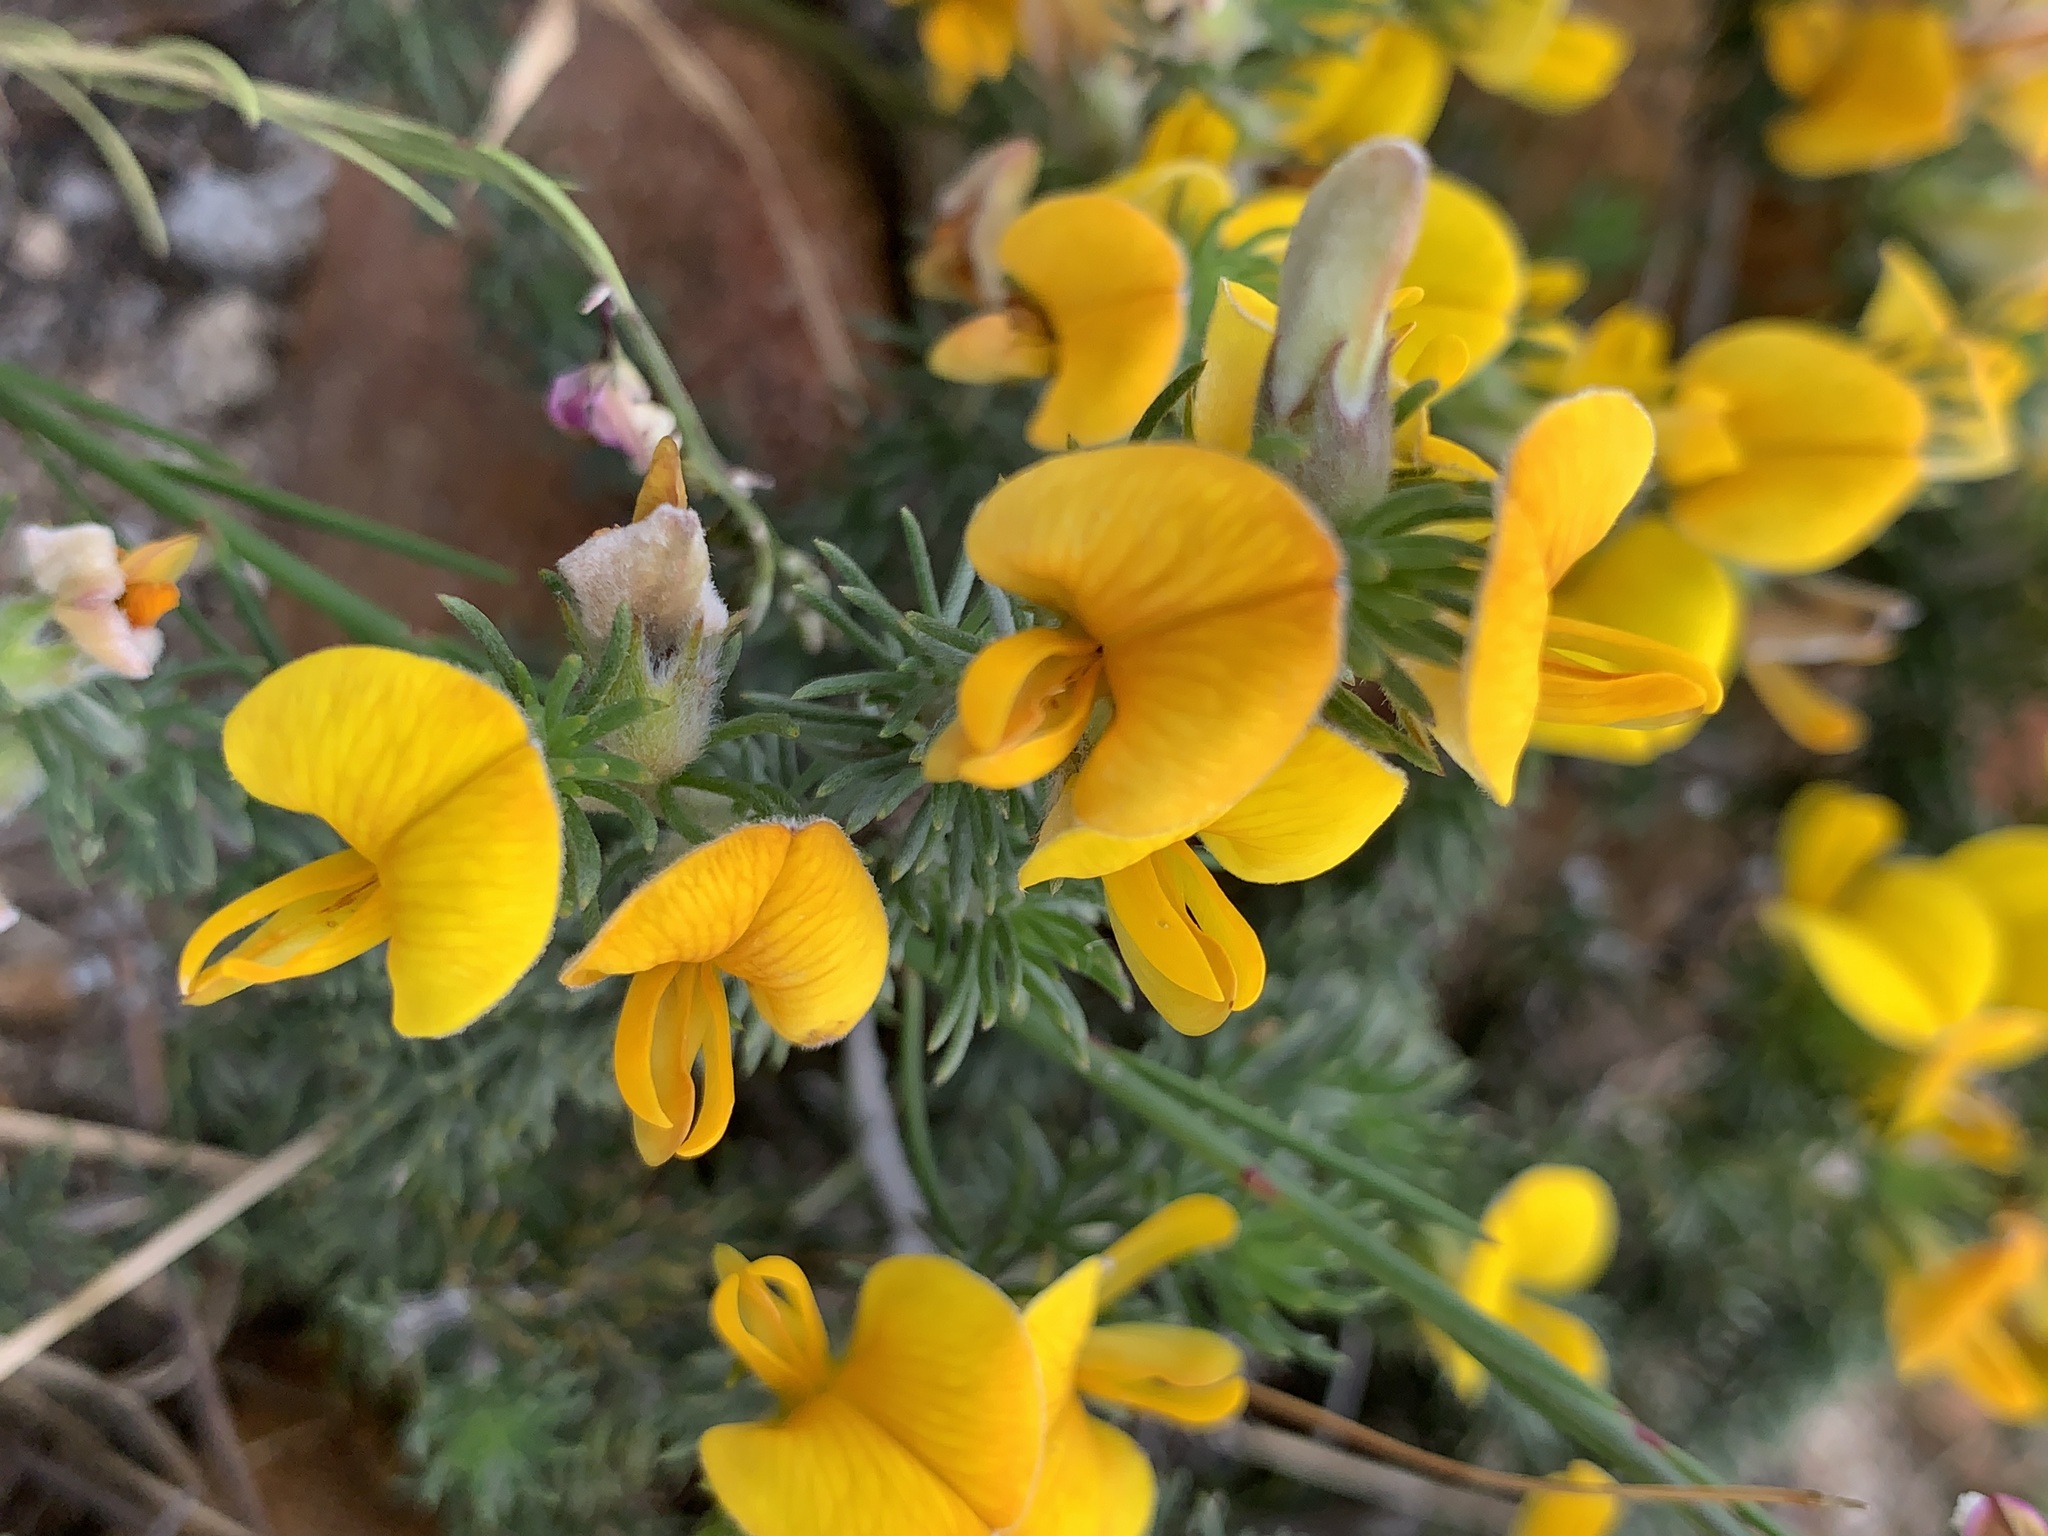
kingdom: Plantae
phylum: Tracheophyta
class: Magnoliopsida
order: Fabales
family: Fabaceae
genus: Aspalathus
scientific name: Aspalathus laricifolia
